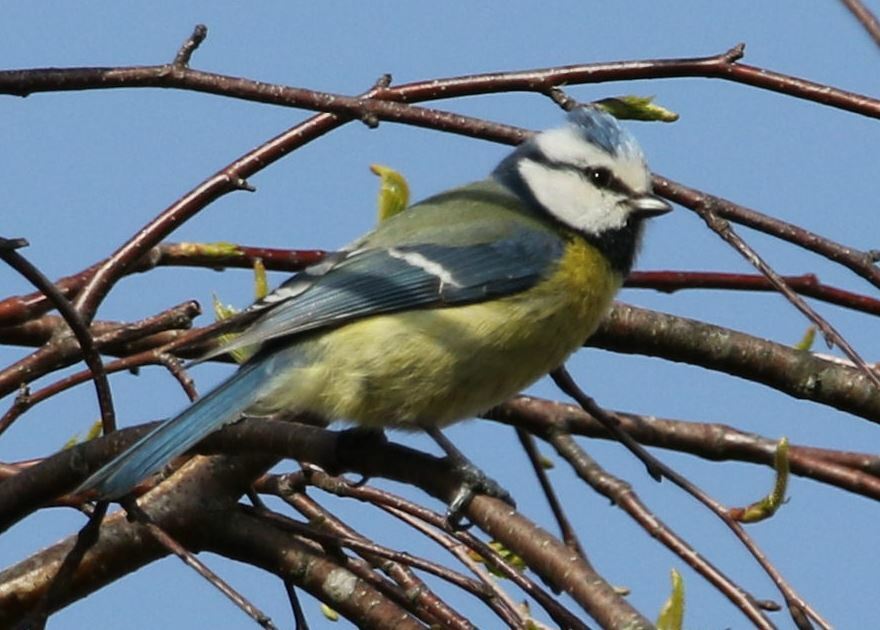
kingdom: Animalia
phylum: Chordata
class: Aves
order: Passeriformes
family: Paridae
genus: Cyanistes
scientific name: Cyanistes caeruleus
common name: Eurasian blue tit
